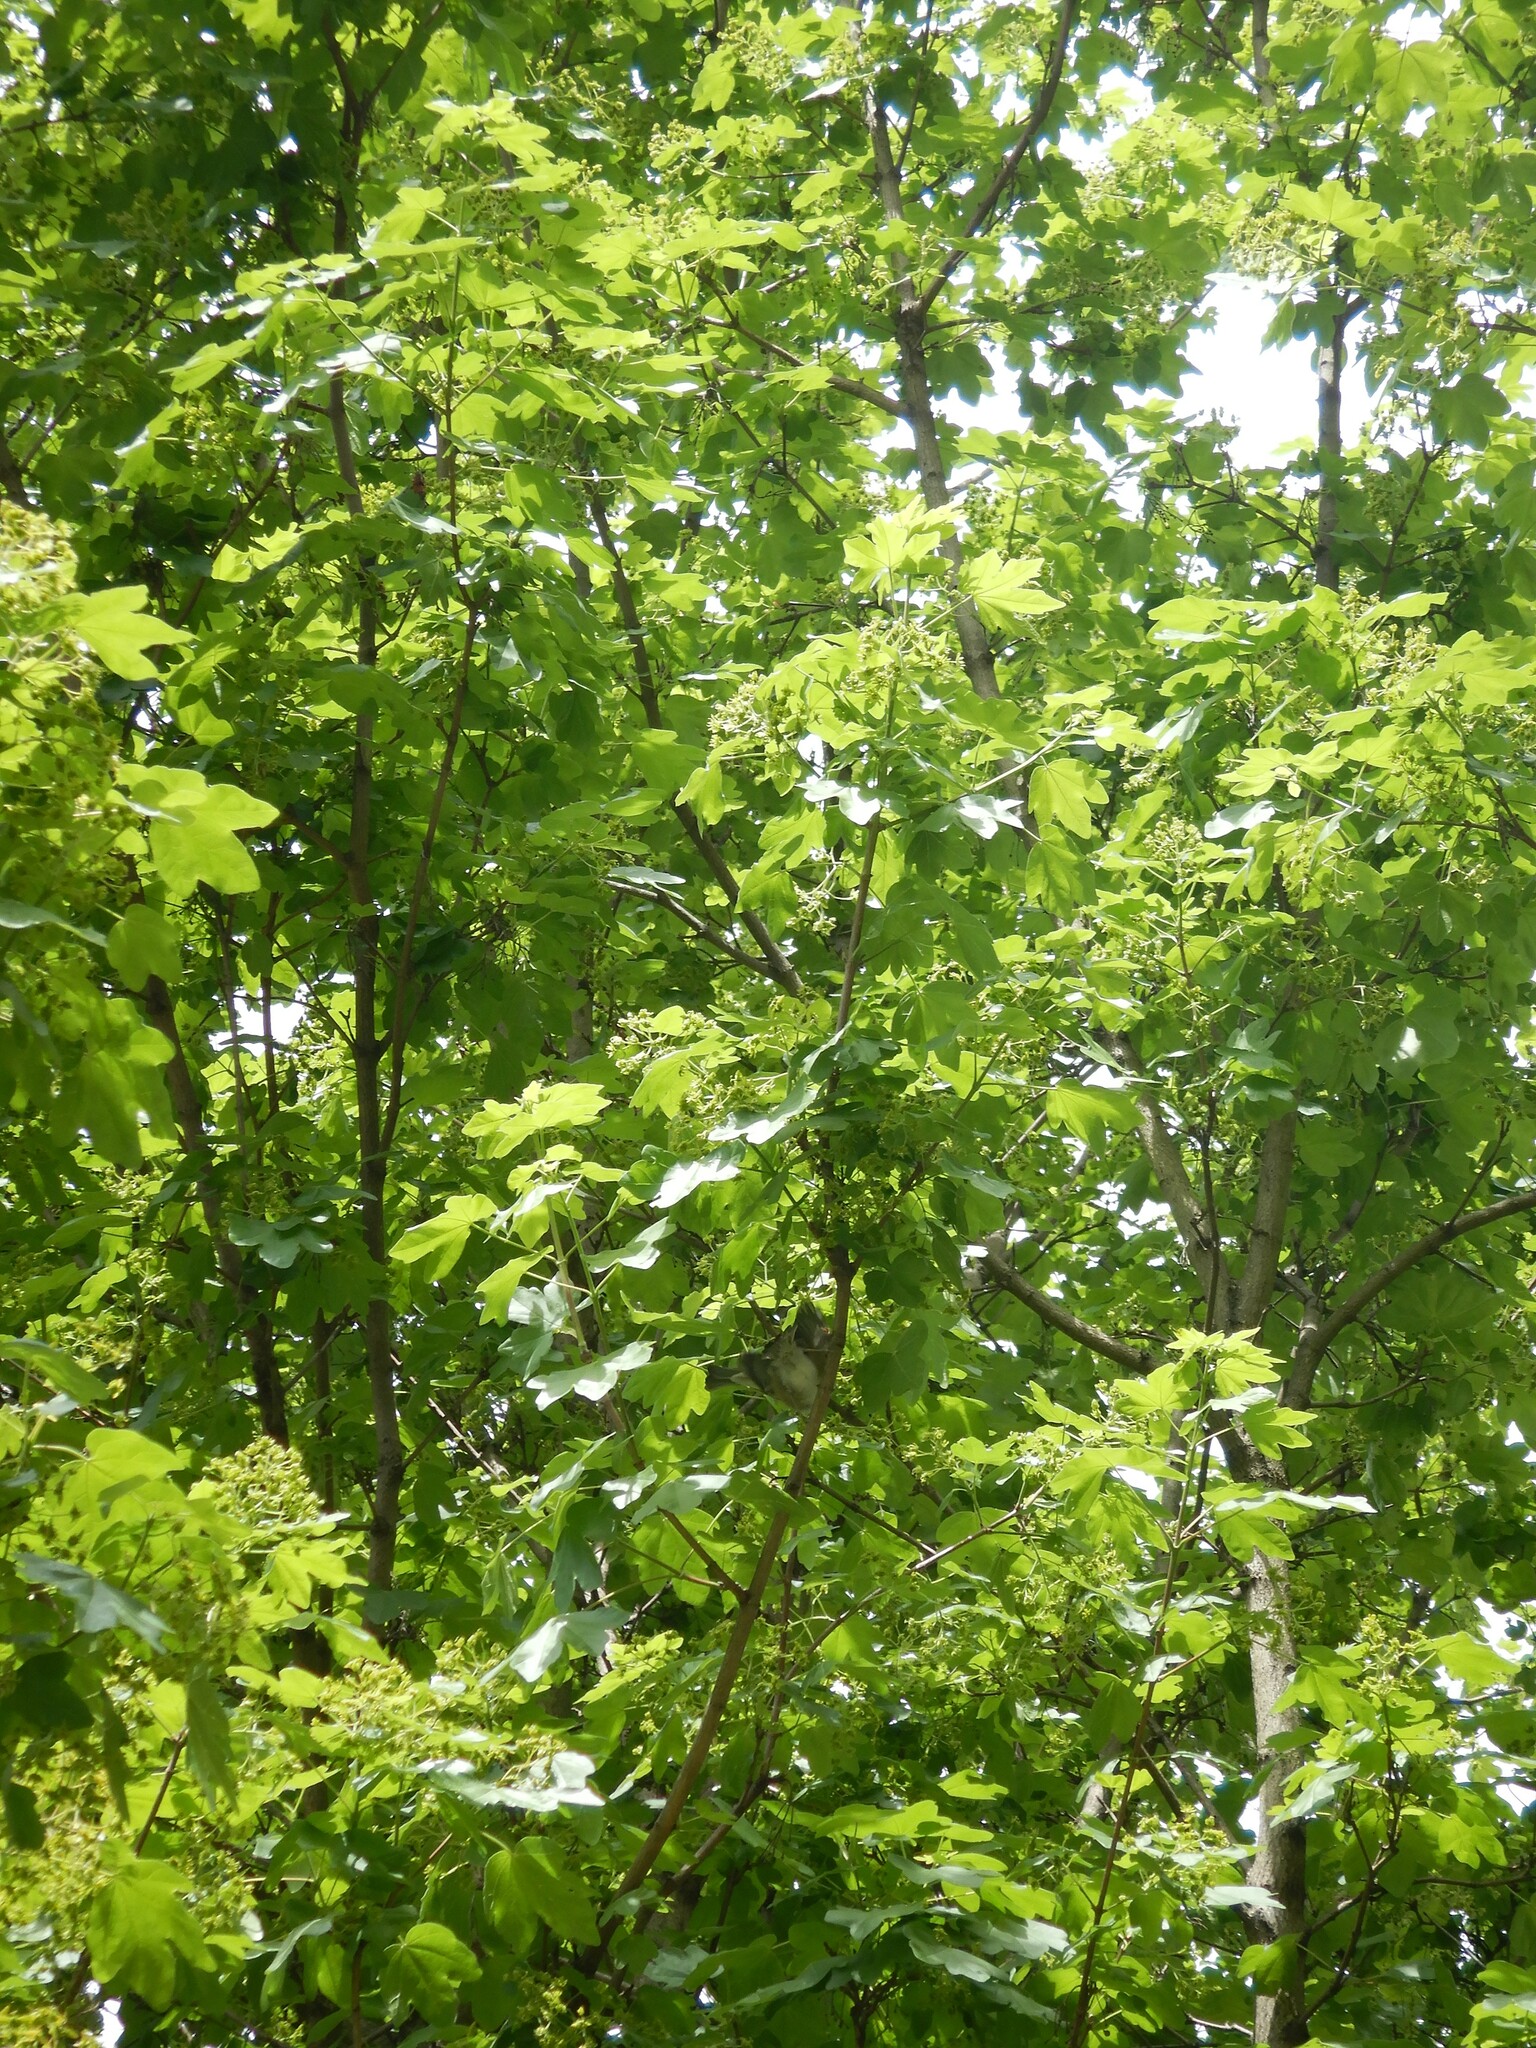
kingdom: Plantae
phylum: Tracheophyta
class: Magnoliopsida
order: Sapindales
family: Sapindaceae
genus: Acer
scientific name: Acer campestre
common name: Field maple
